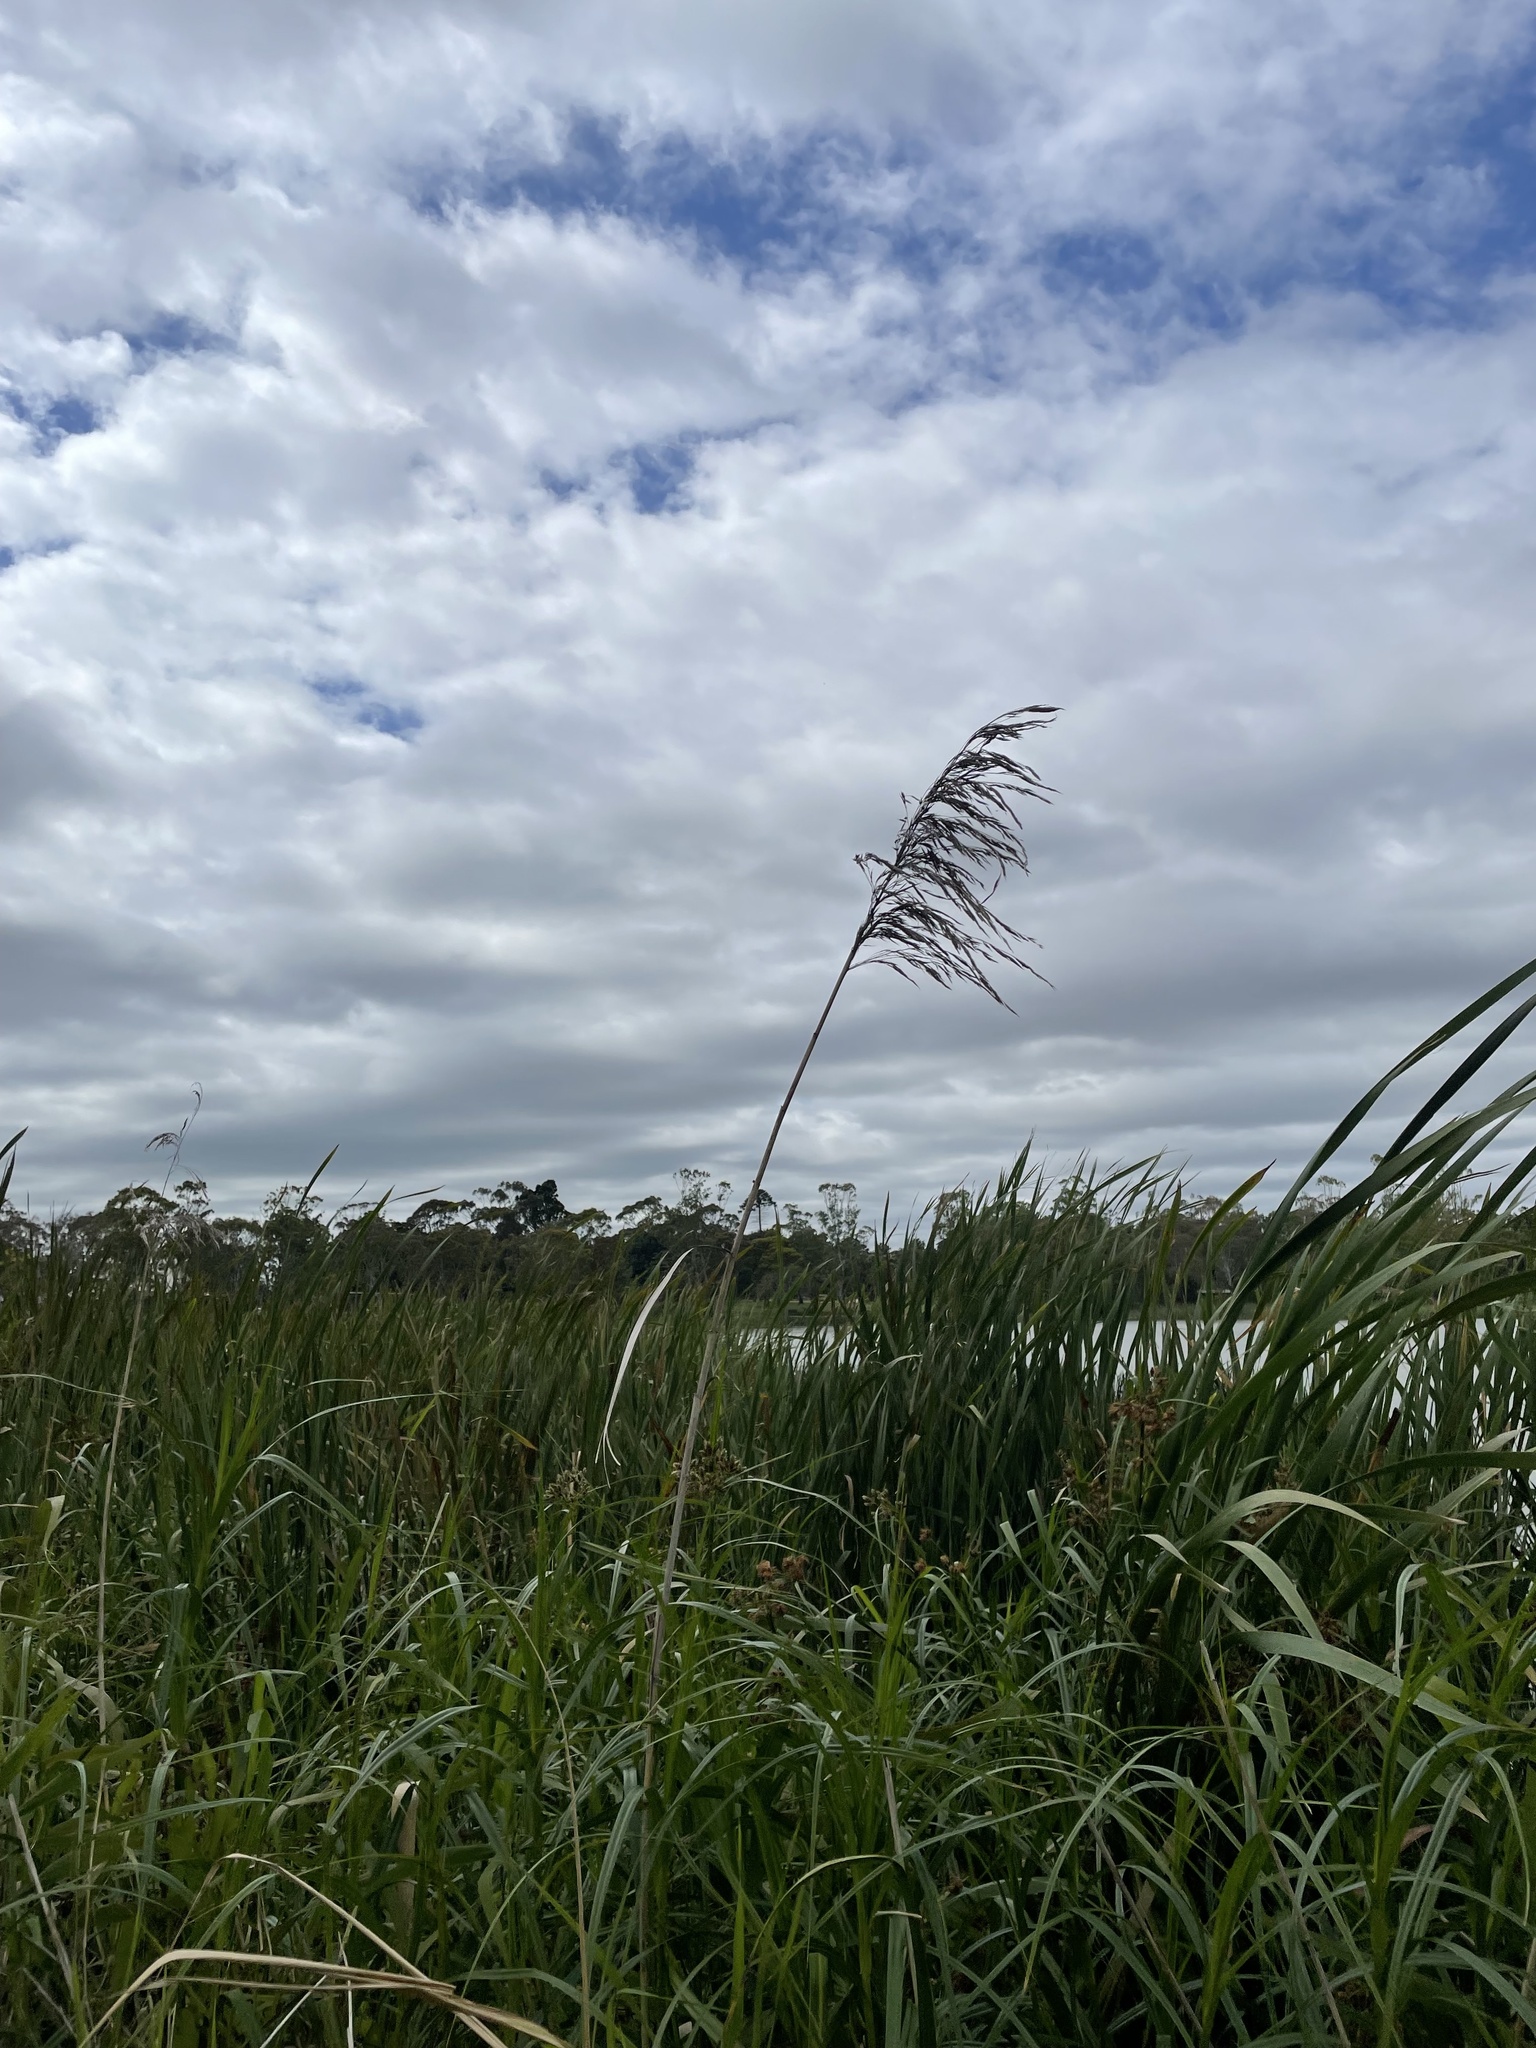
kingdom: Plantae
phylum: Tracheophyta
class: Liliopsida
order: Poales
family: Poaceae
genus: Phragmites
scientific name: Phragmites australis
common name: Common reed
